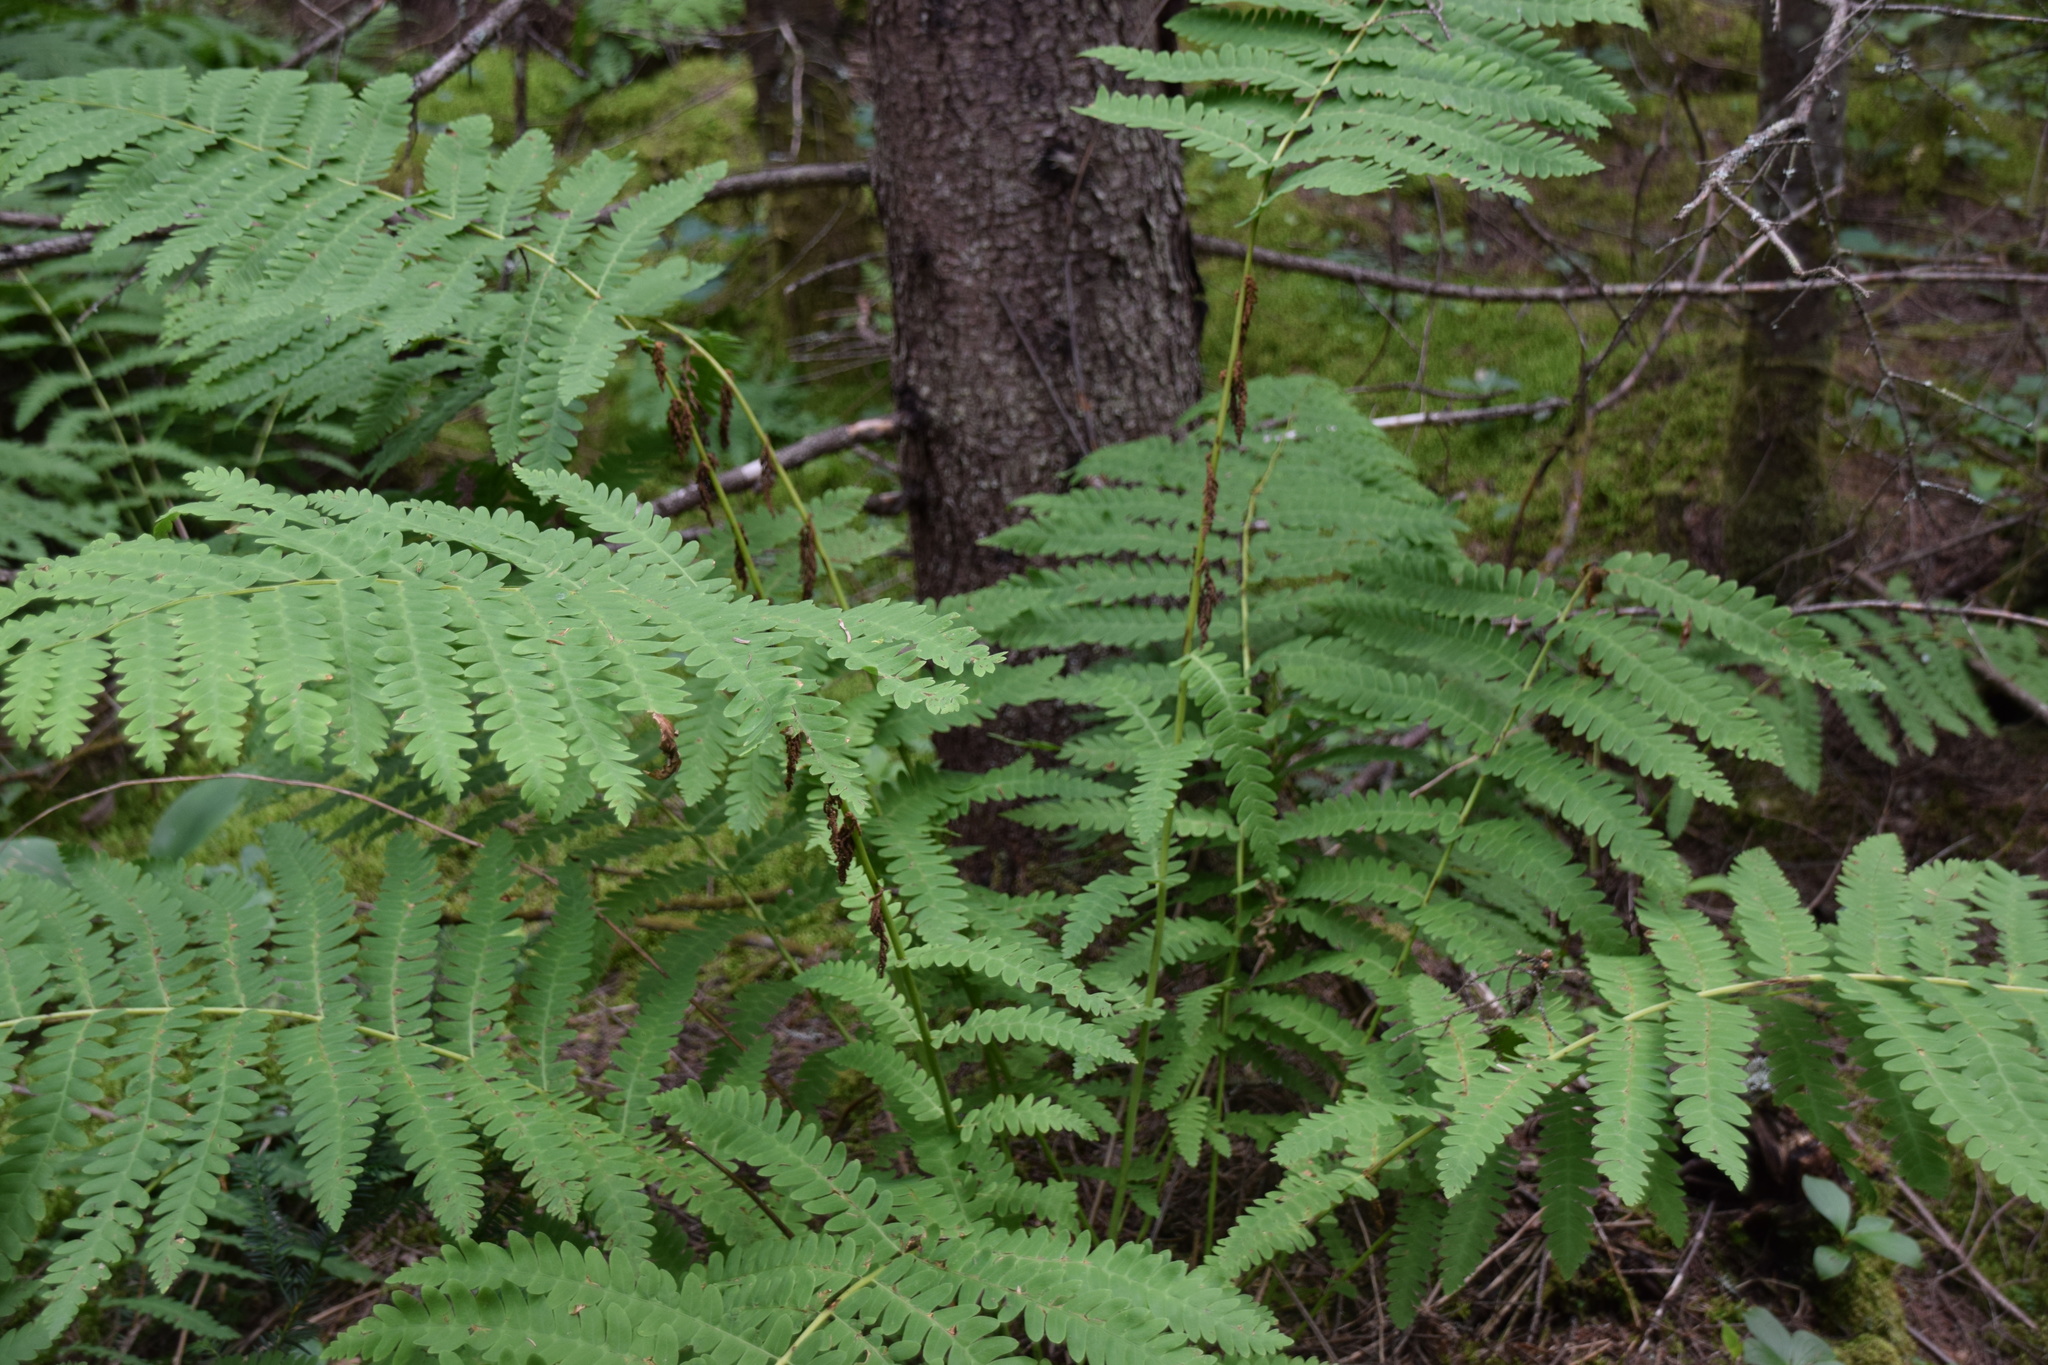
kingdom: Plantae
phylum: Tracheophyta
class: Polypodiopsida
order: Osmundales
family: Osmundaceae
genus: Claytosmunda
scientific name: Claytosmunda claytoniana
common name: Clayton's fern
